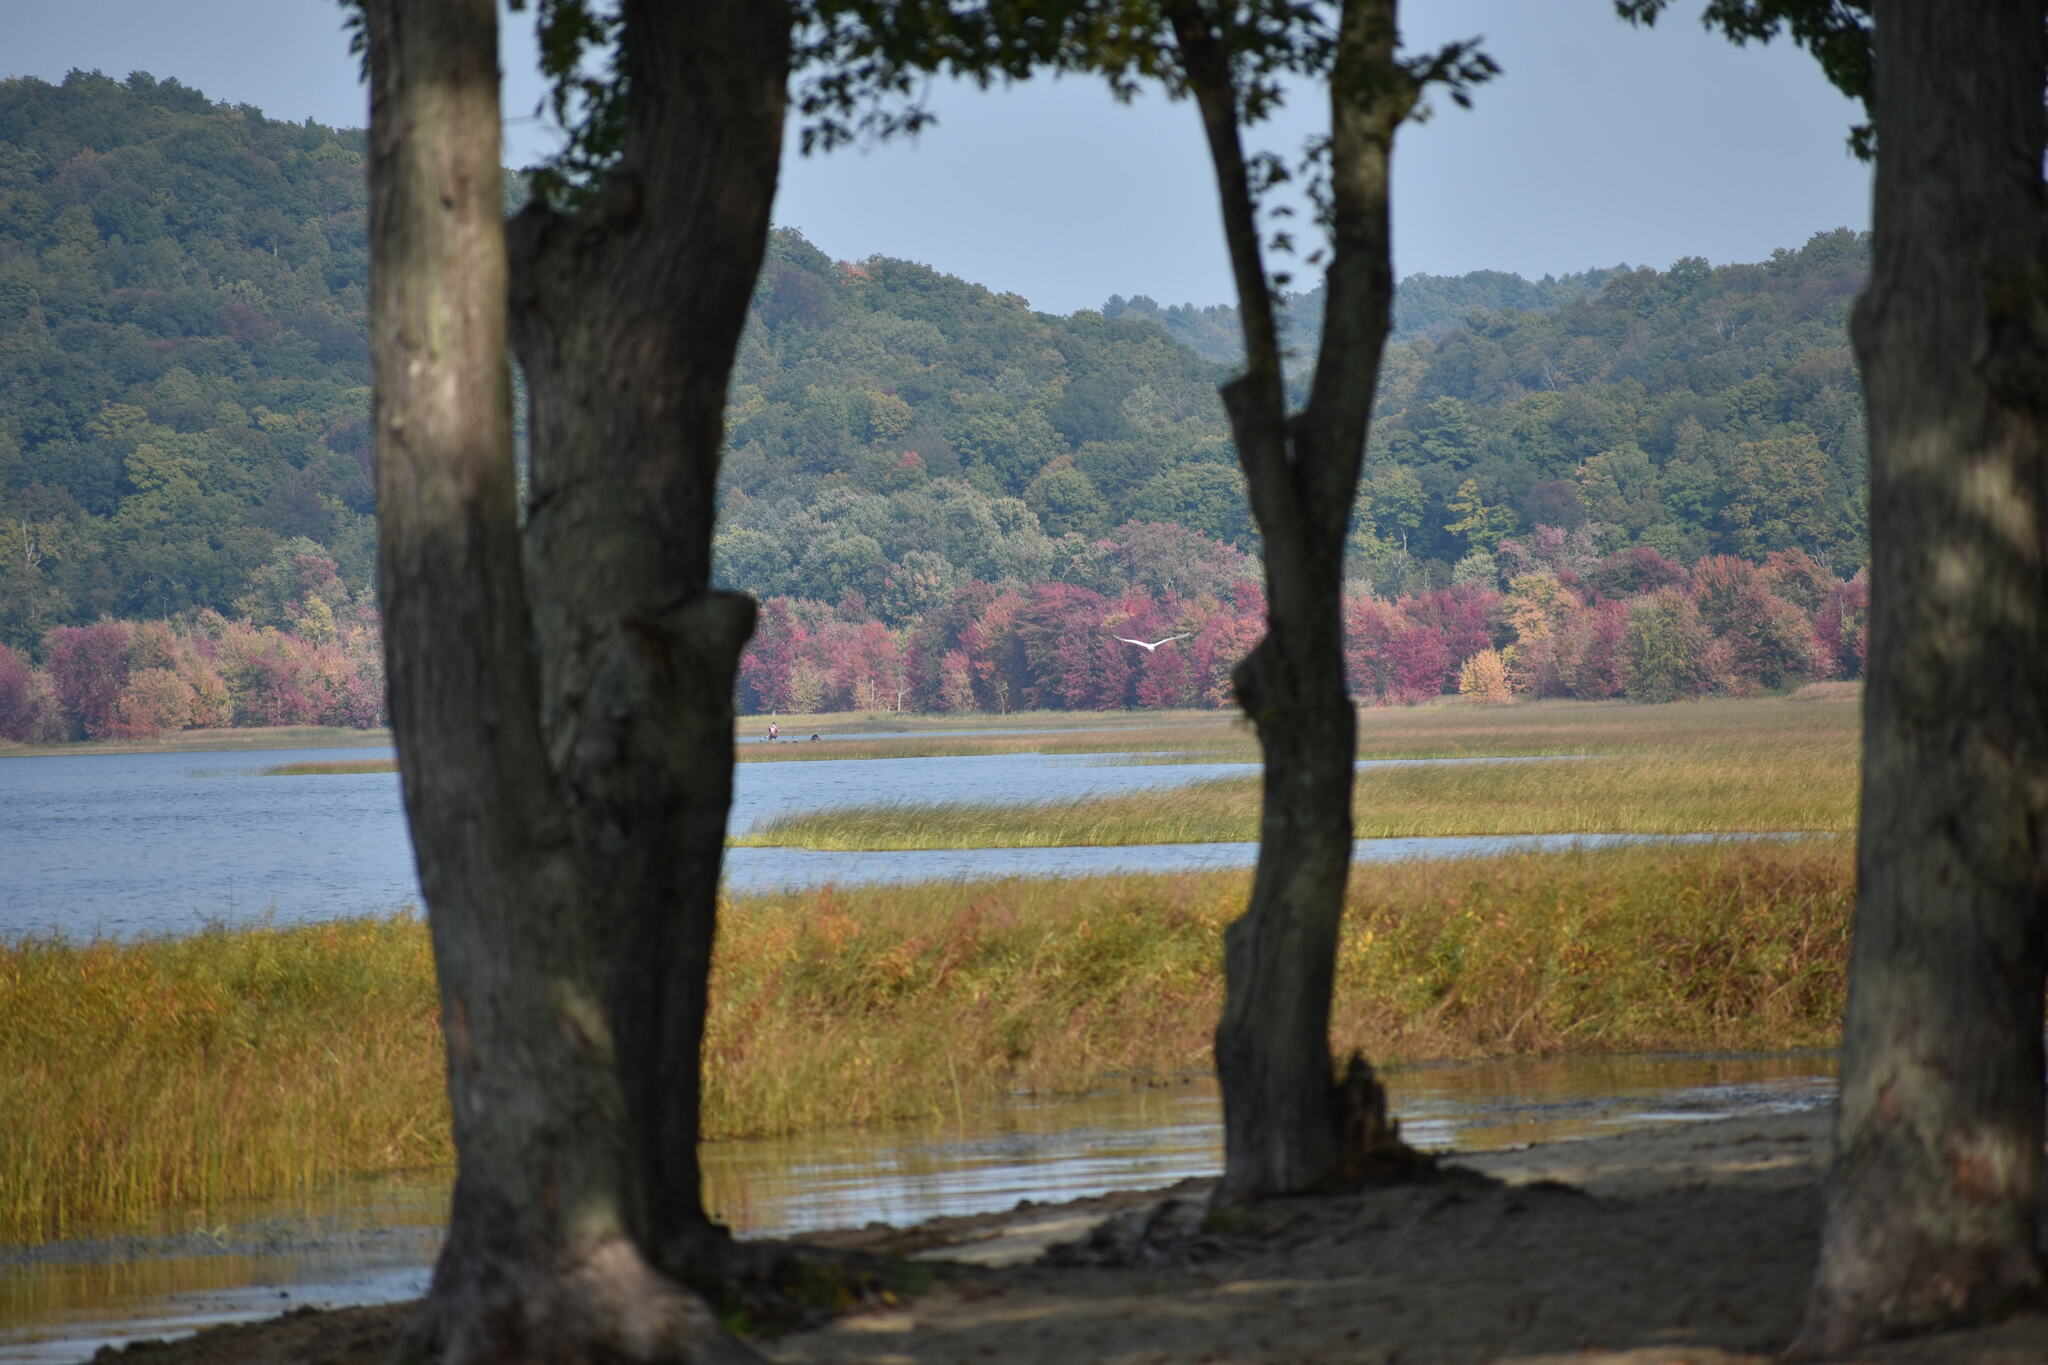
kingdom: Animalia
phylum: Chordata
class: Aves
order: Pelecaniformes
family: Ardeidae
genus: Ardea
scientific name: Ardea alba
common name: Great egret
